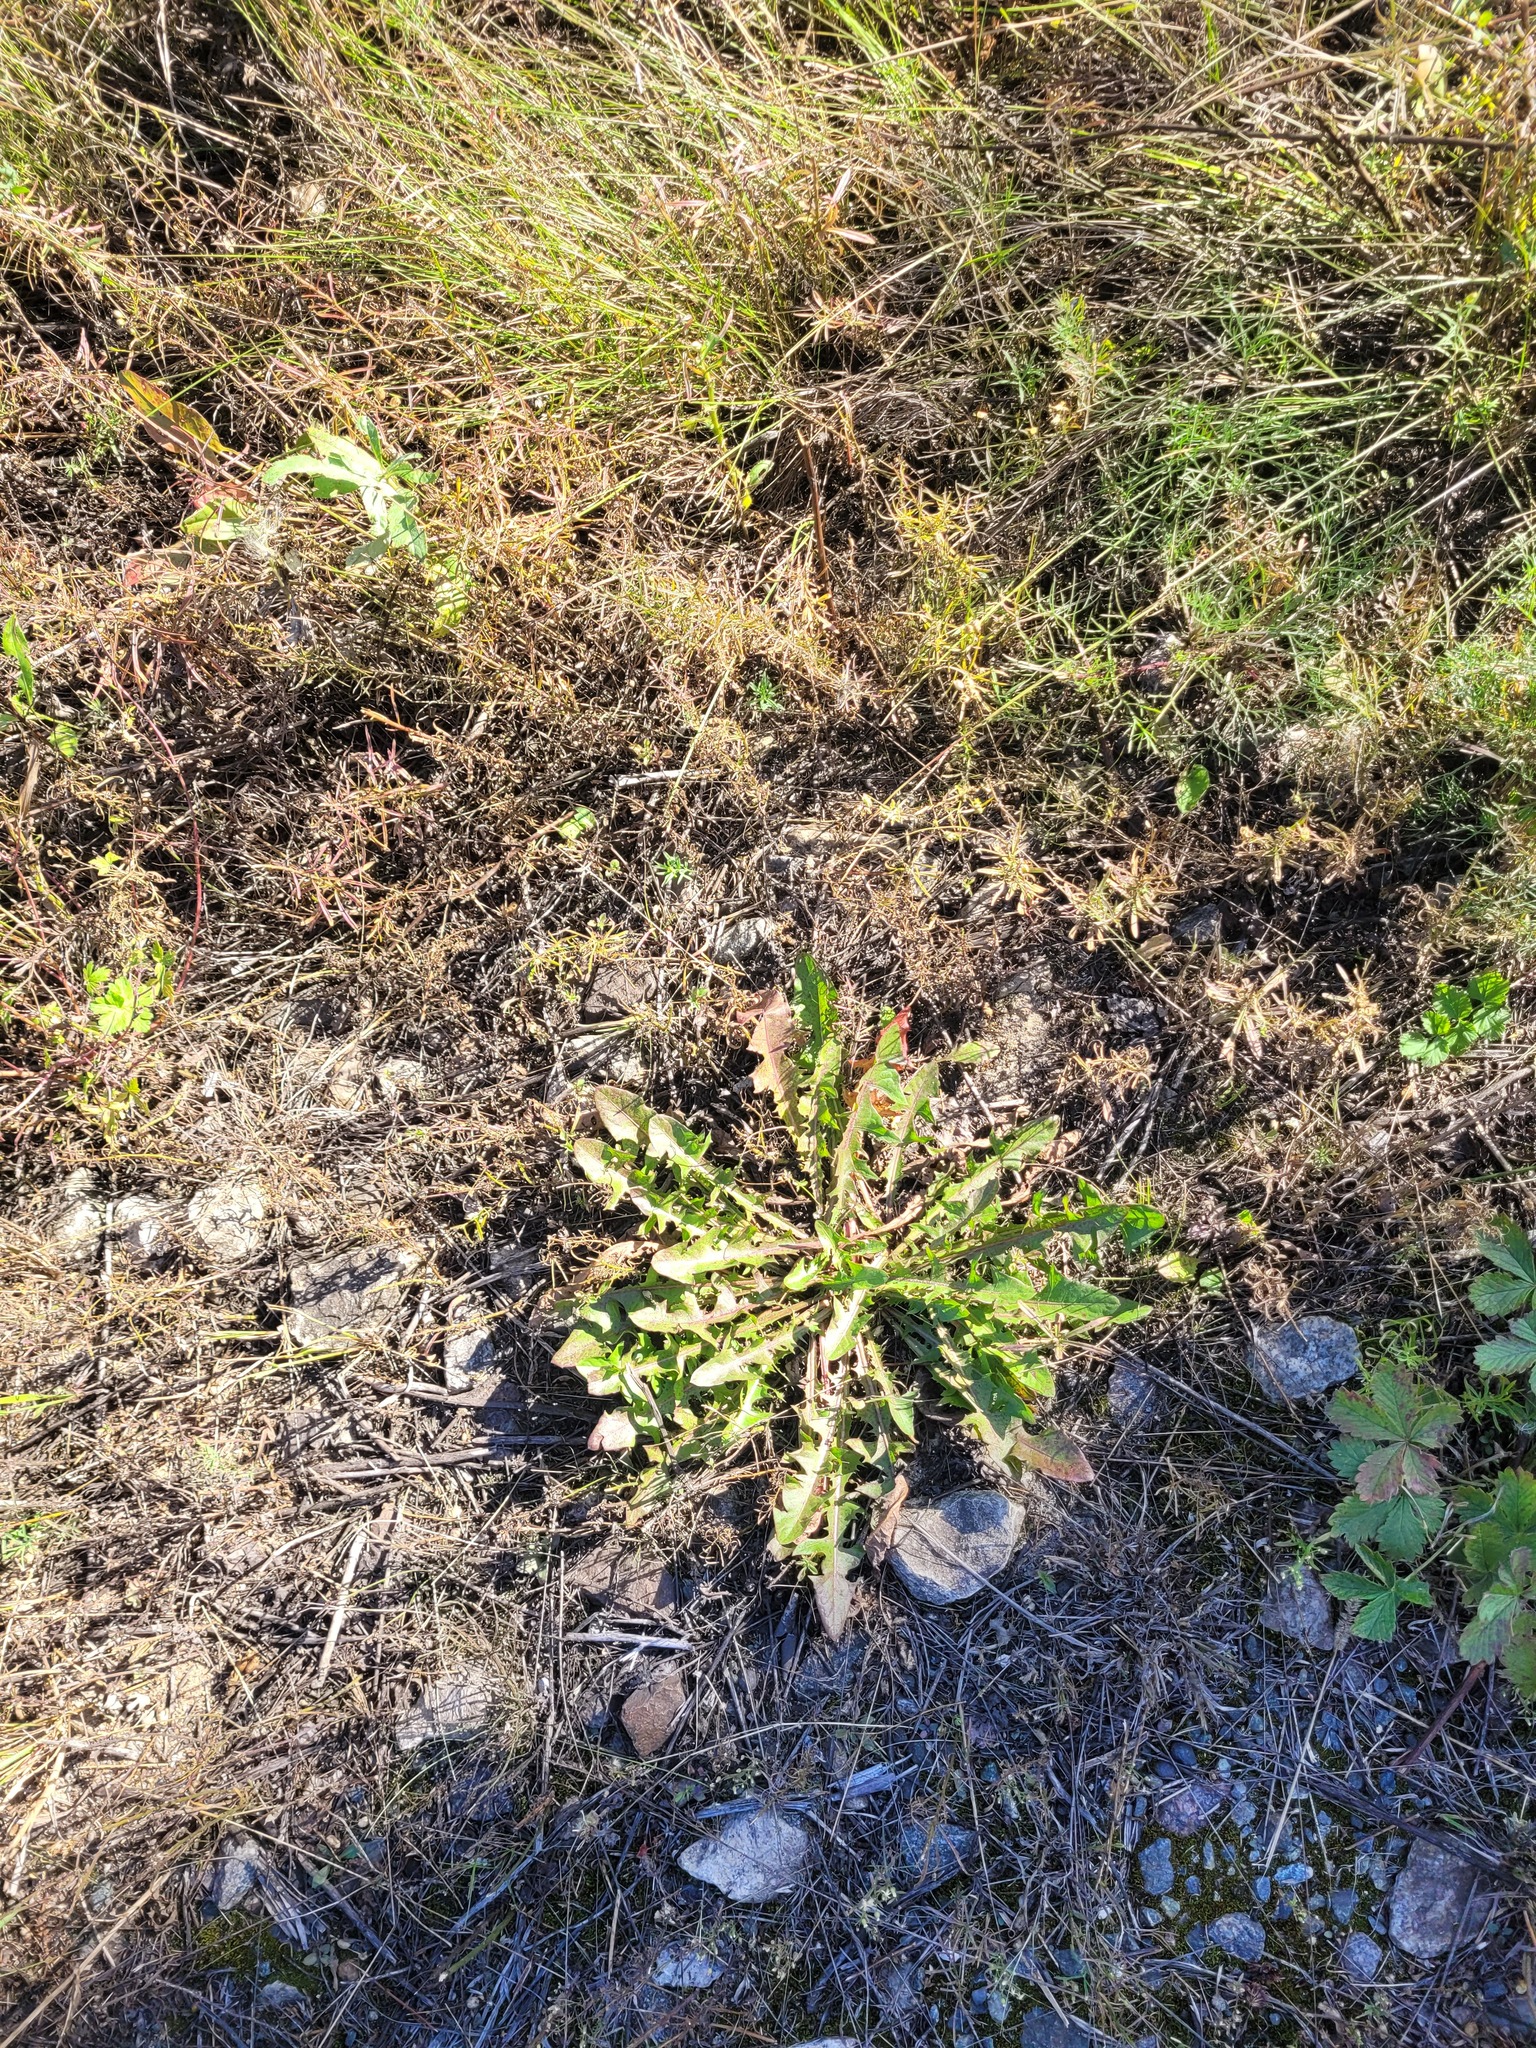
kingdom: Plantae
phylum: Tracheophyta
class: Magnoliopsida
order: Asterales
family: Asteraceae
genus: Taraxacum
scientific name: Taraxacum officinale
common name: Common dandelion
